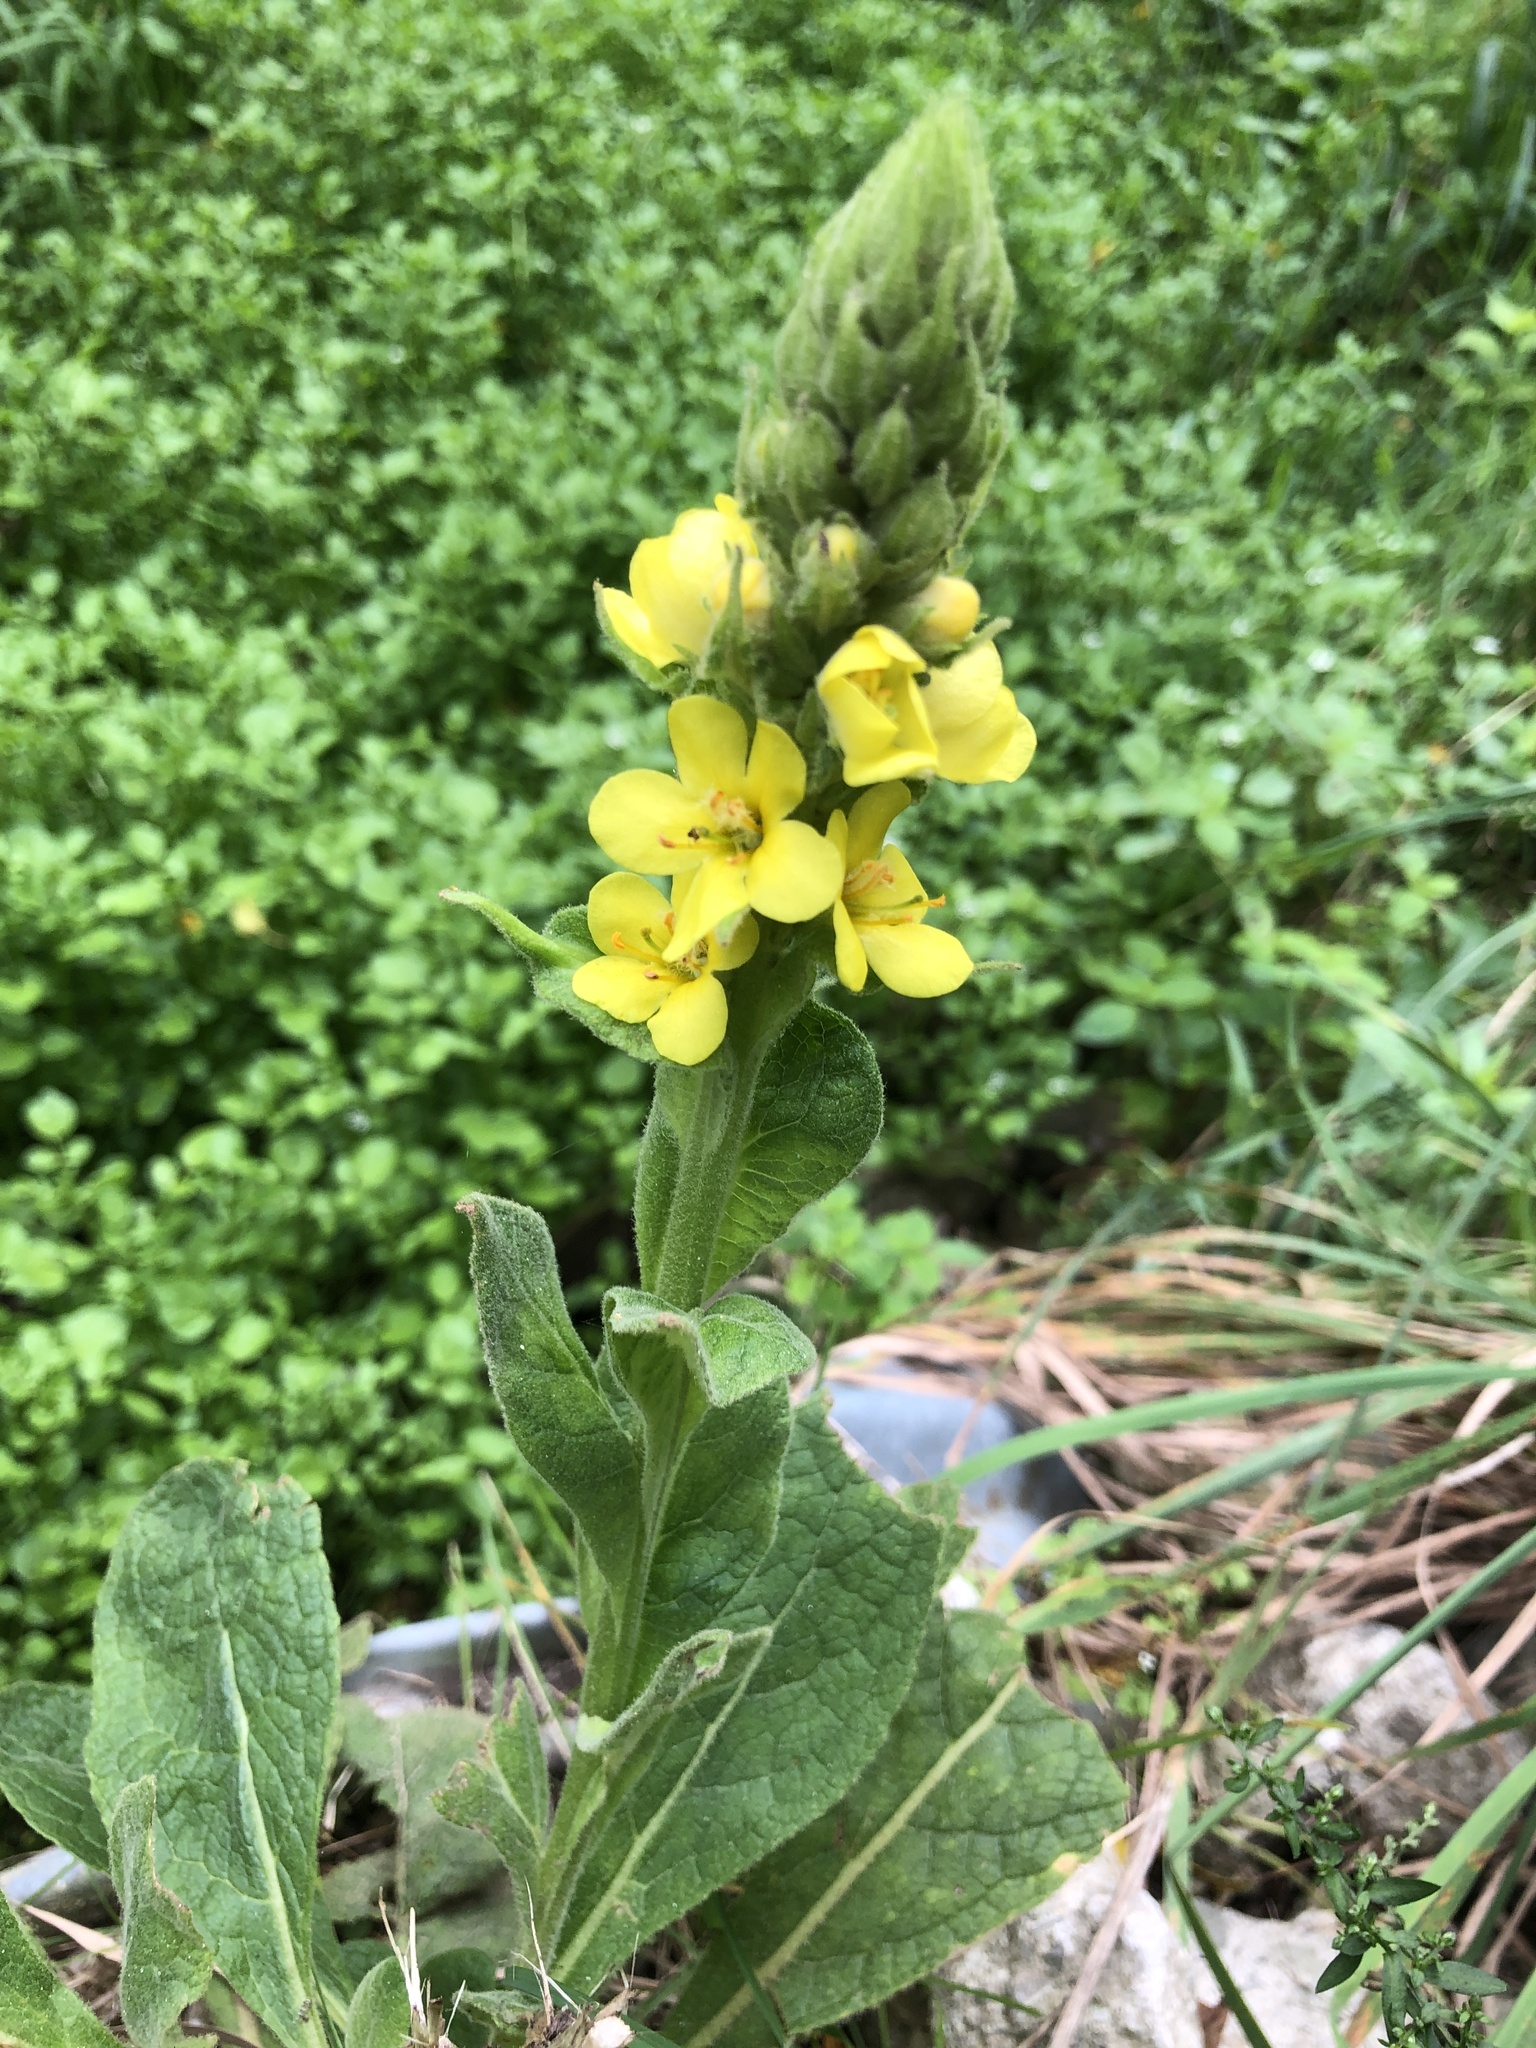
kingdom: Plantae
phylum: Tracheophyta
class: Magnoliopsida
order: Lamiales
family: Scrophulariaceae
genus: Verbascum
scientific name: Verbascum thapsus
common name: Common mullein
